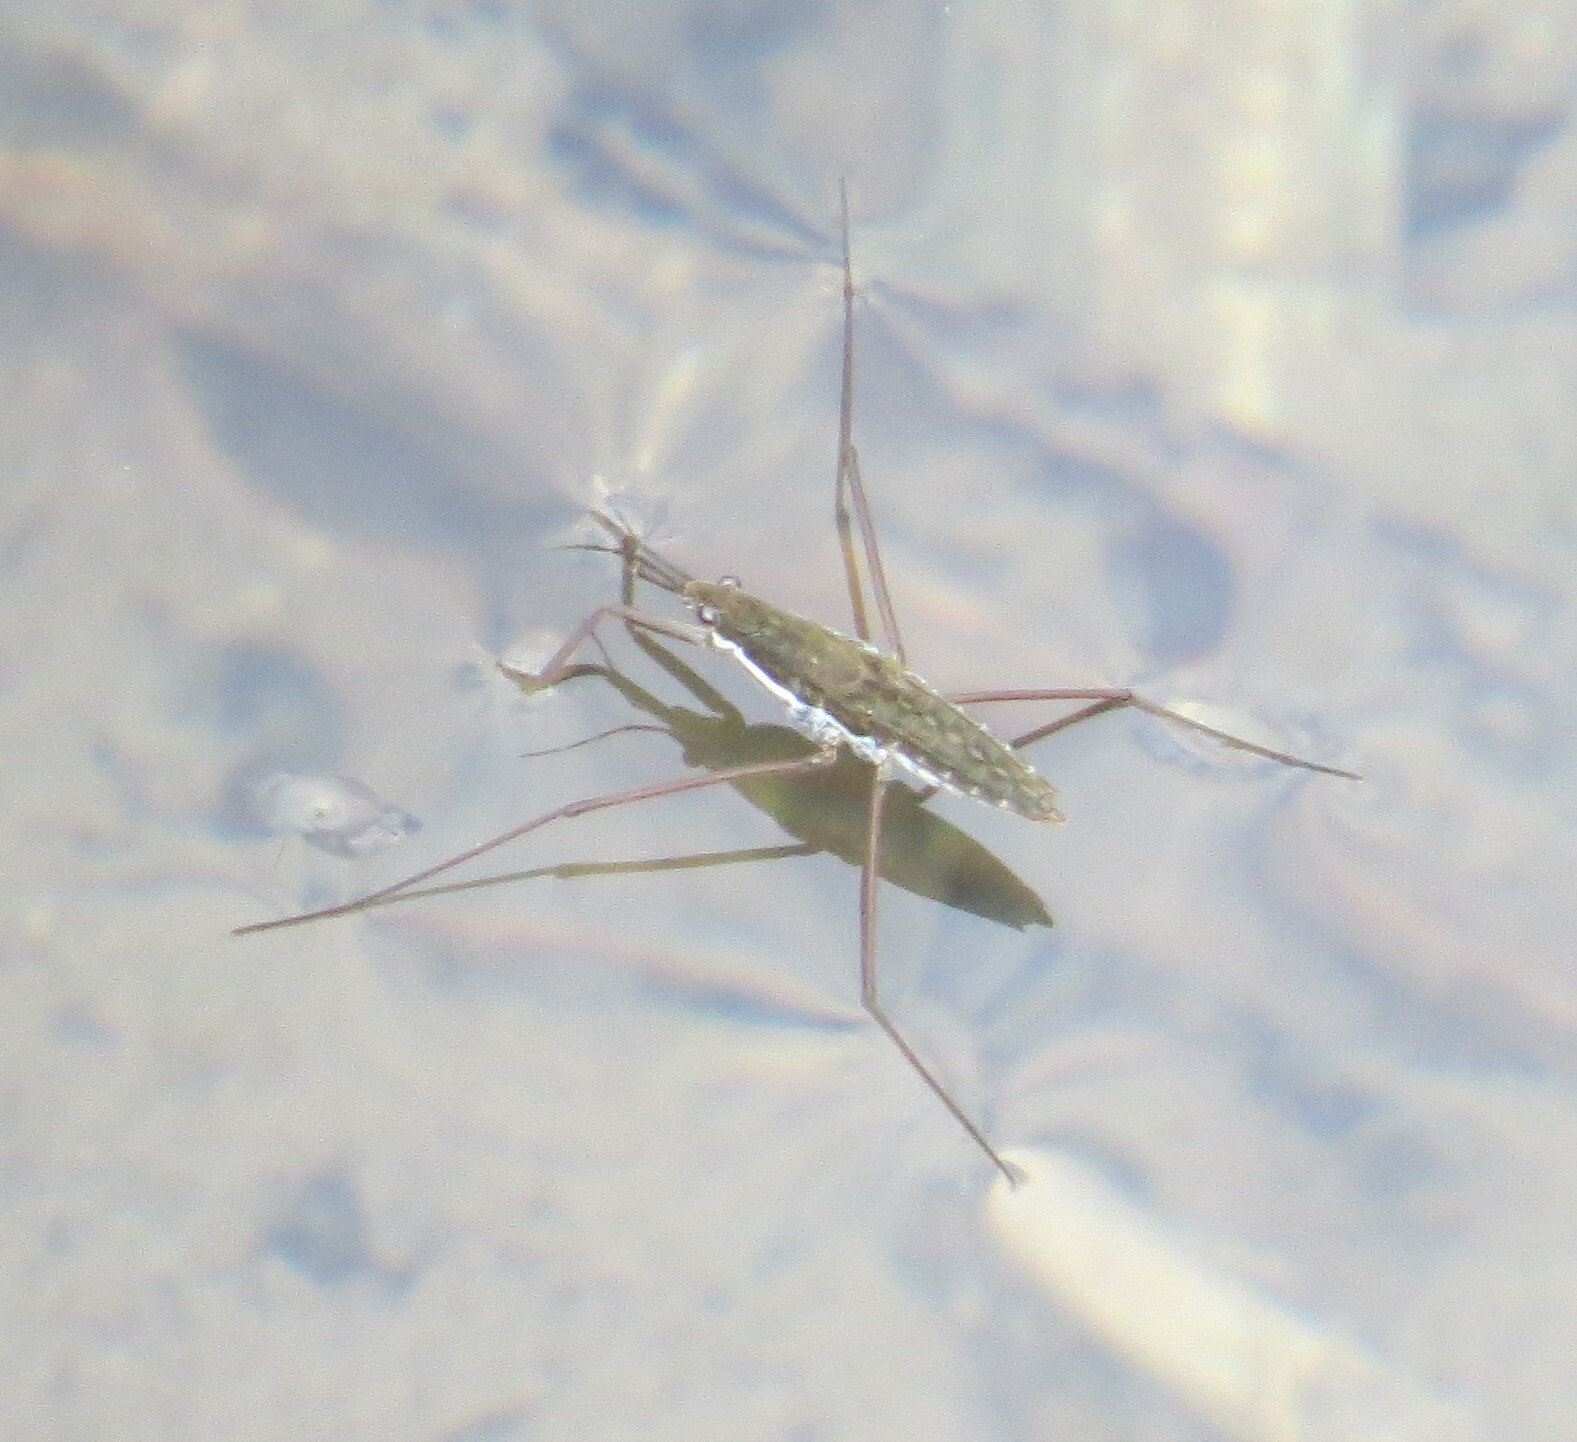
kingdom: Animalia
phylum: Arthropoda
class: Insecta
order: Hemiptera
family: Gerridae
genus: Aquarius
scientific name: Aquarius remigis
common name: Common water strider
